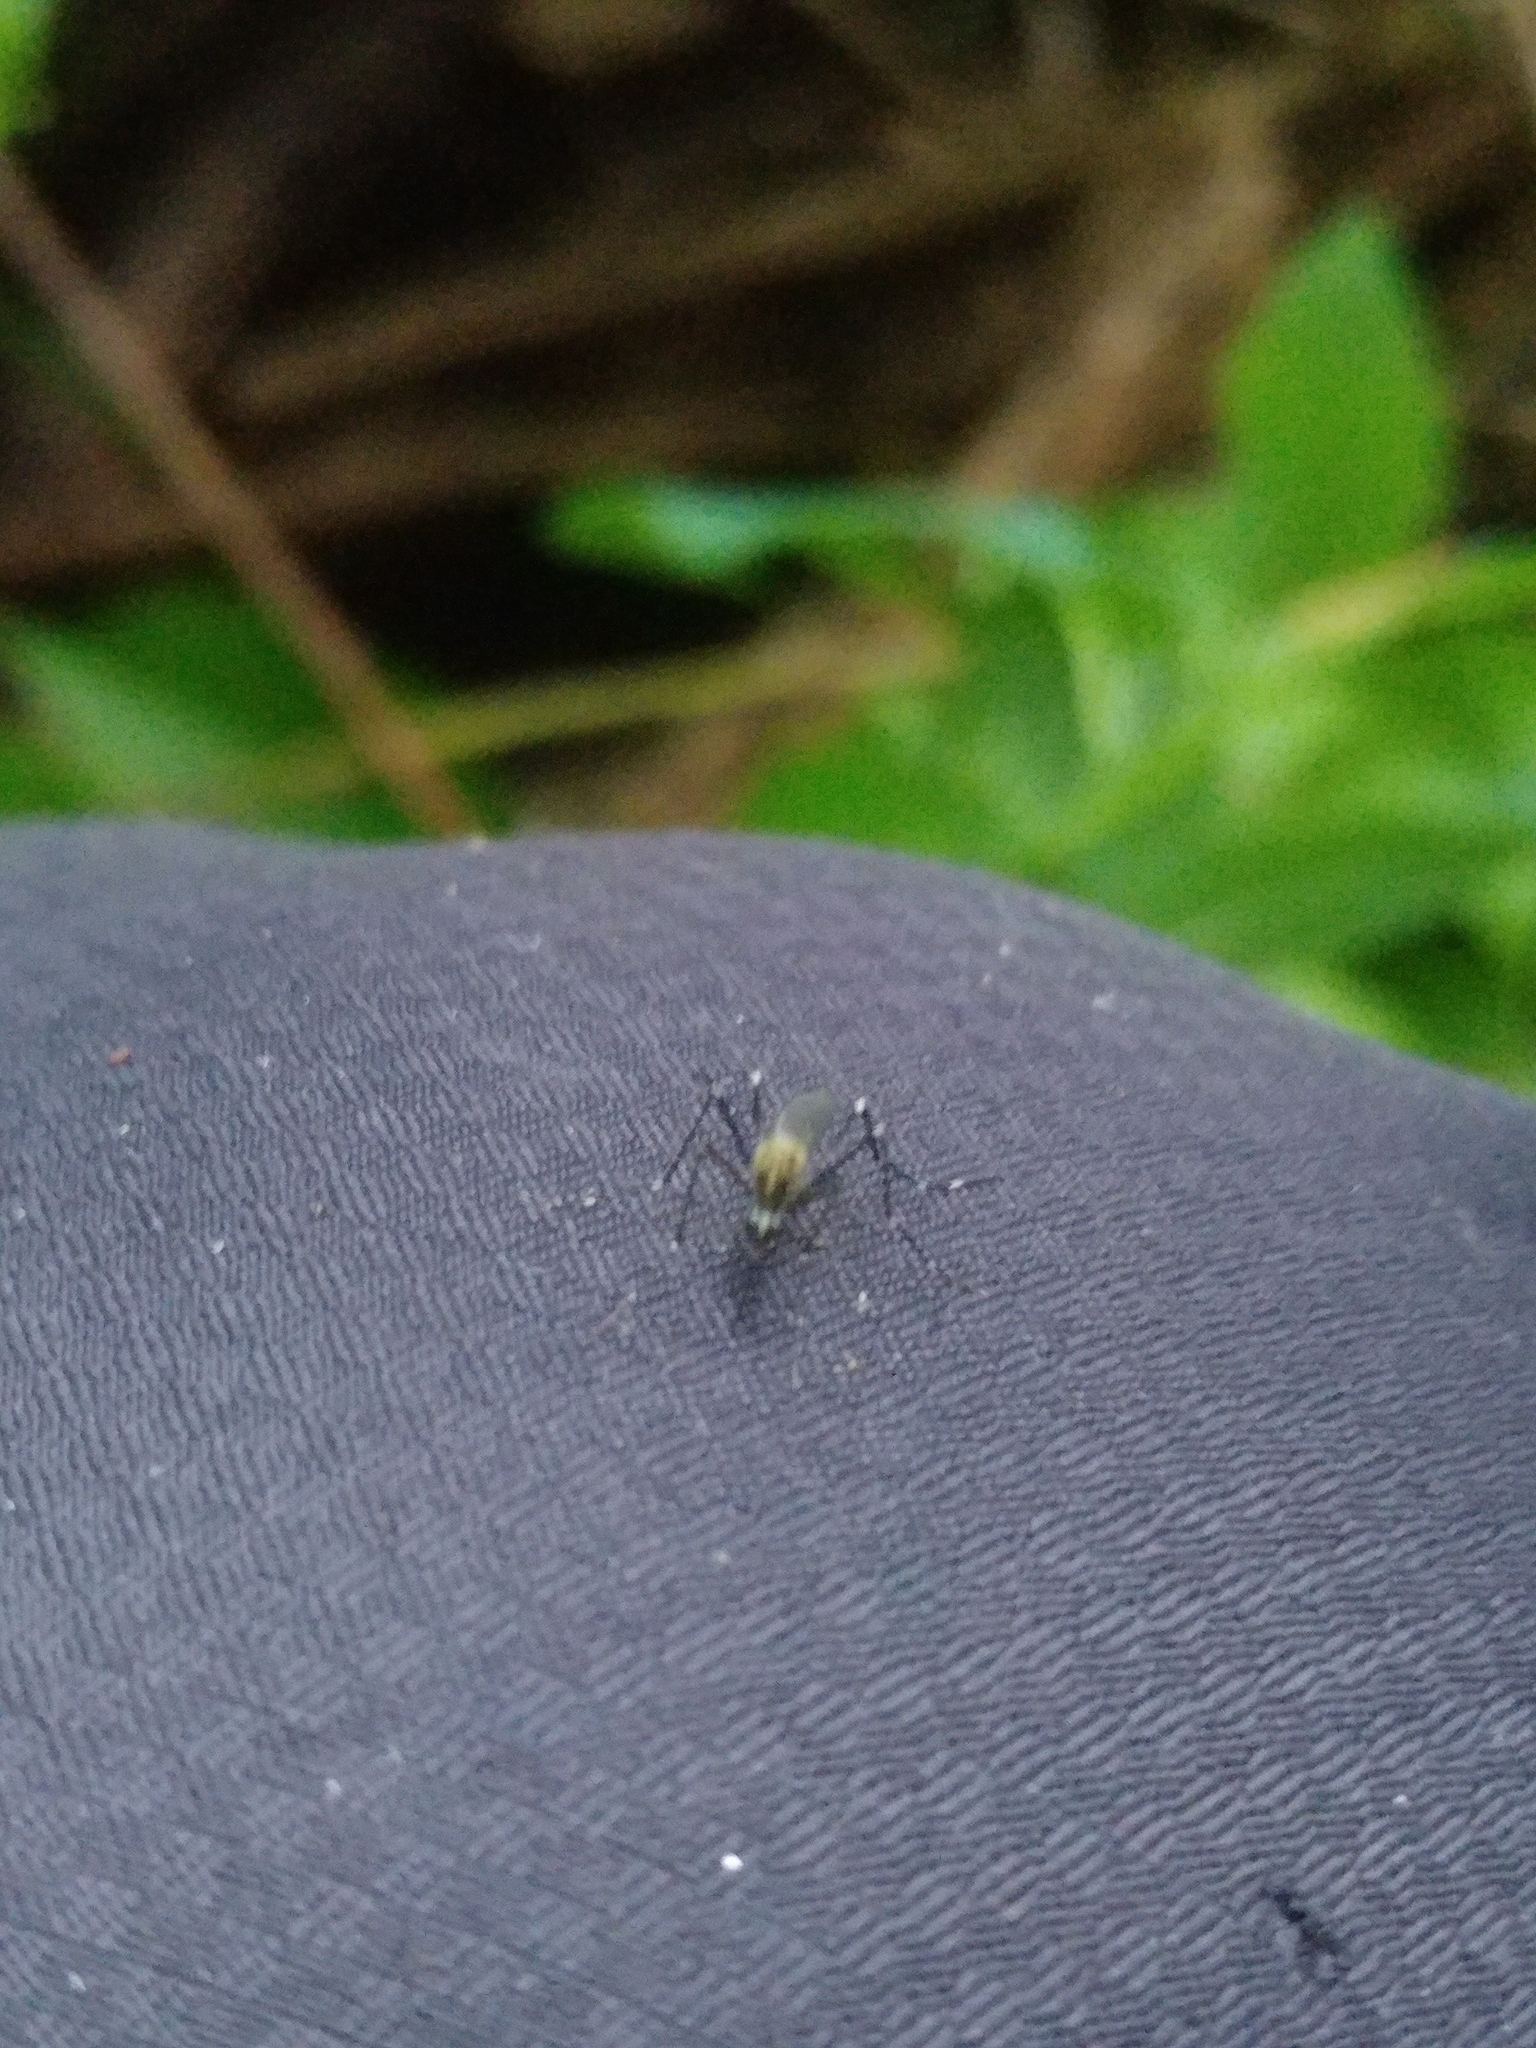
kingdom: Animalia
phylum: Arthropoda
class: Insecta
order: Diptera
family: Culicidae
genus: Aedes
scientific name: Aedes japonicus
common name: Asian bush mosquito
